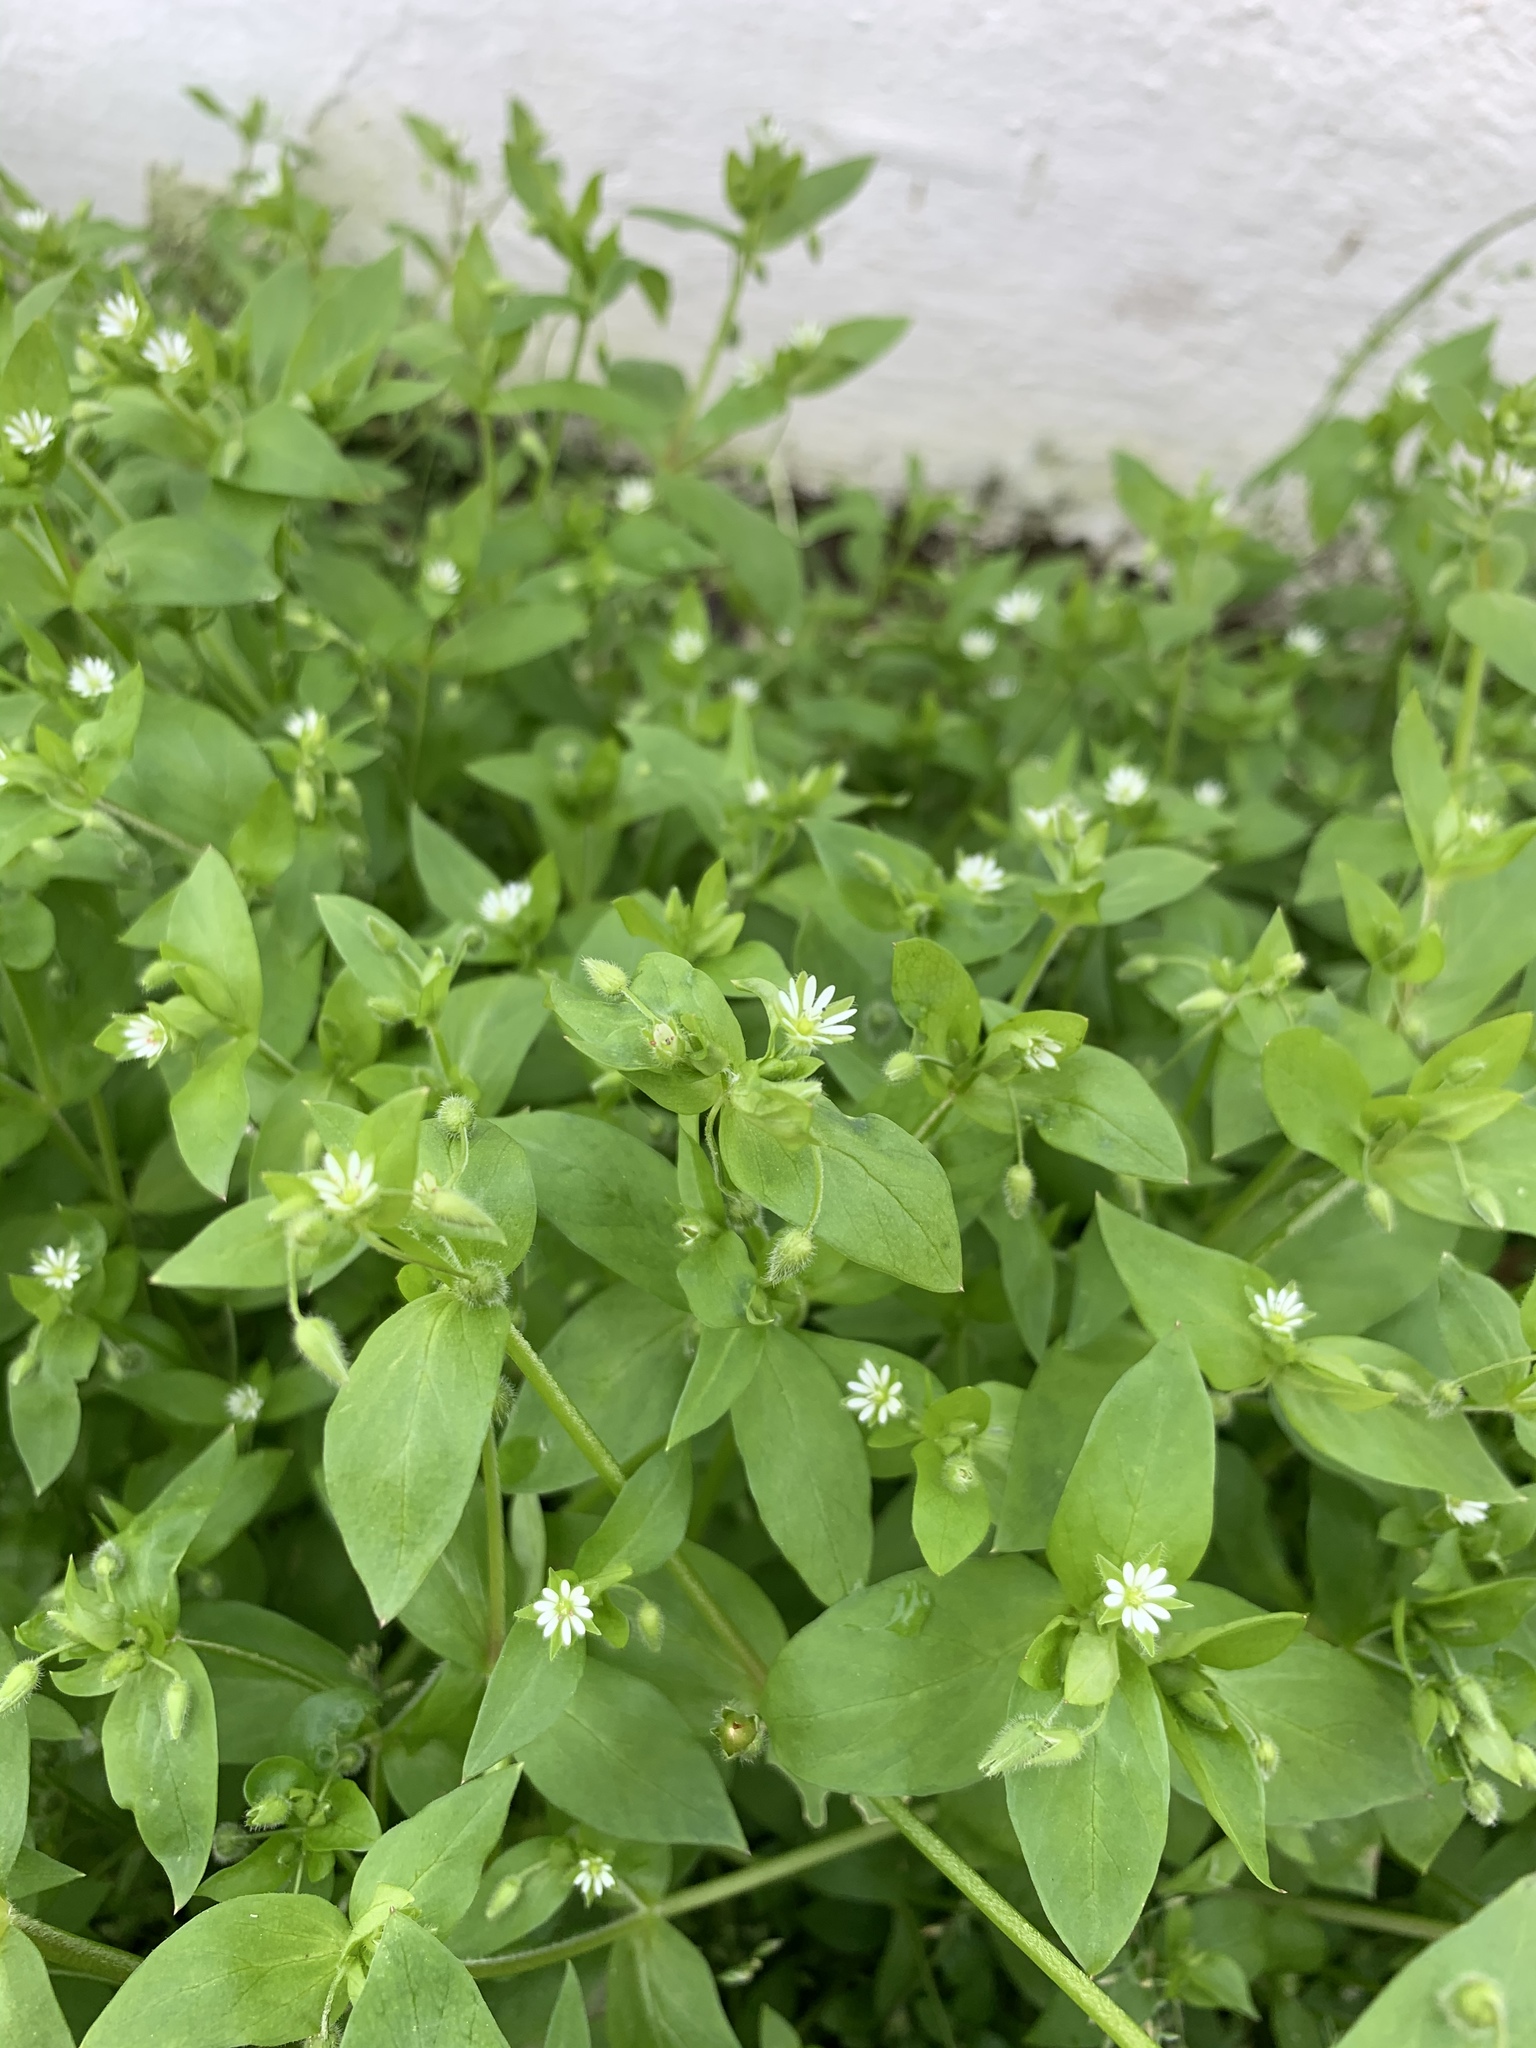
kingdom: Plantae
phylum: Tracheophyta
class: Magnoliopsida
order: Caryophyllales
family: Caryophyllaceae
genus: Stellaria
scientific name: Stellaria media
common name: Common chickweed
